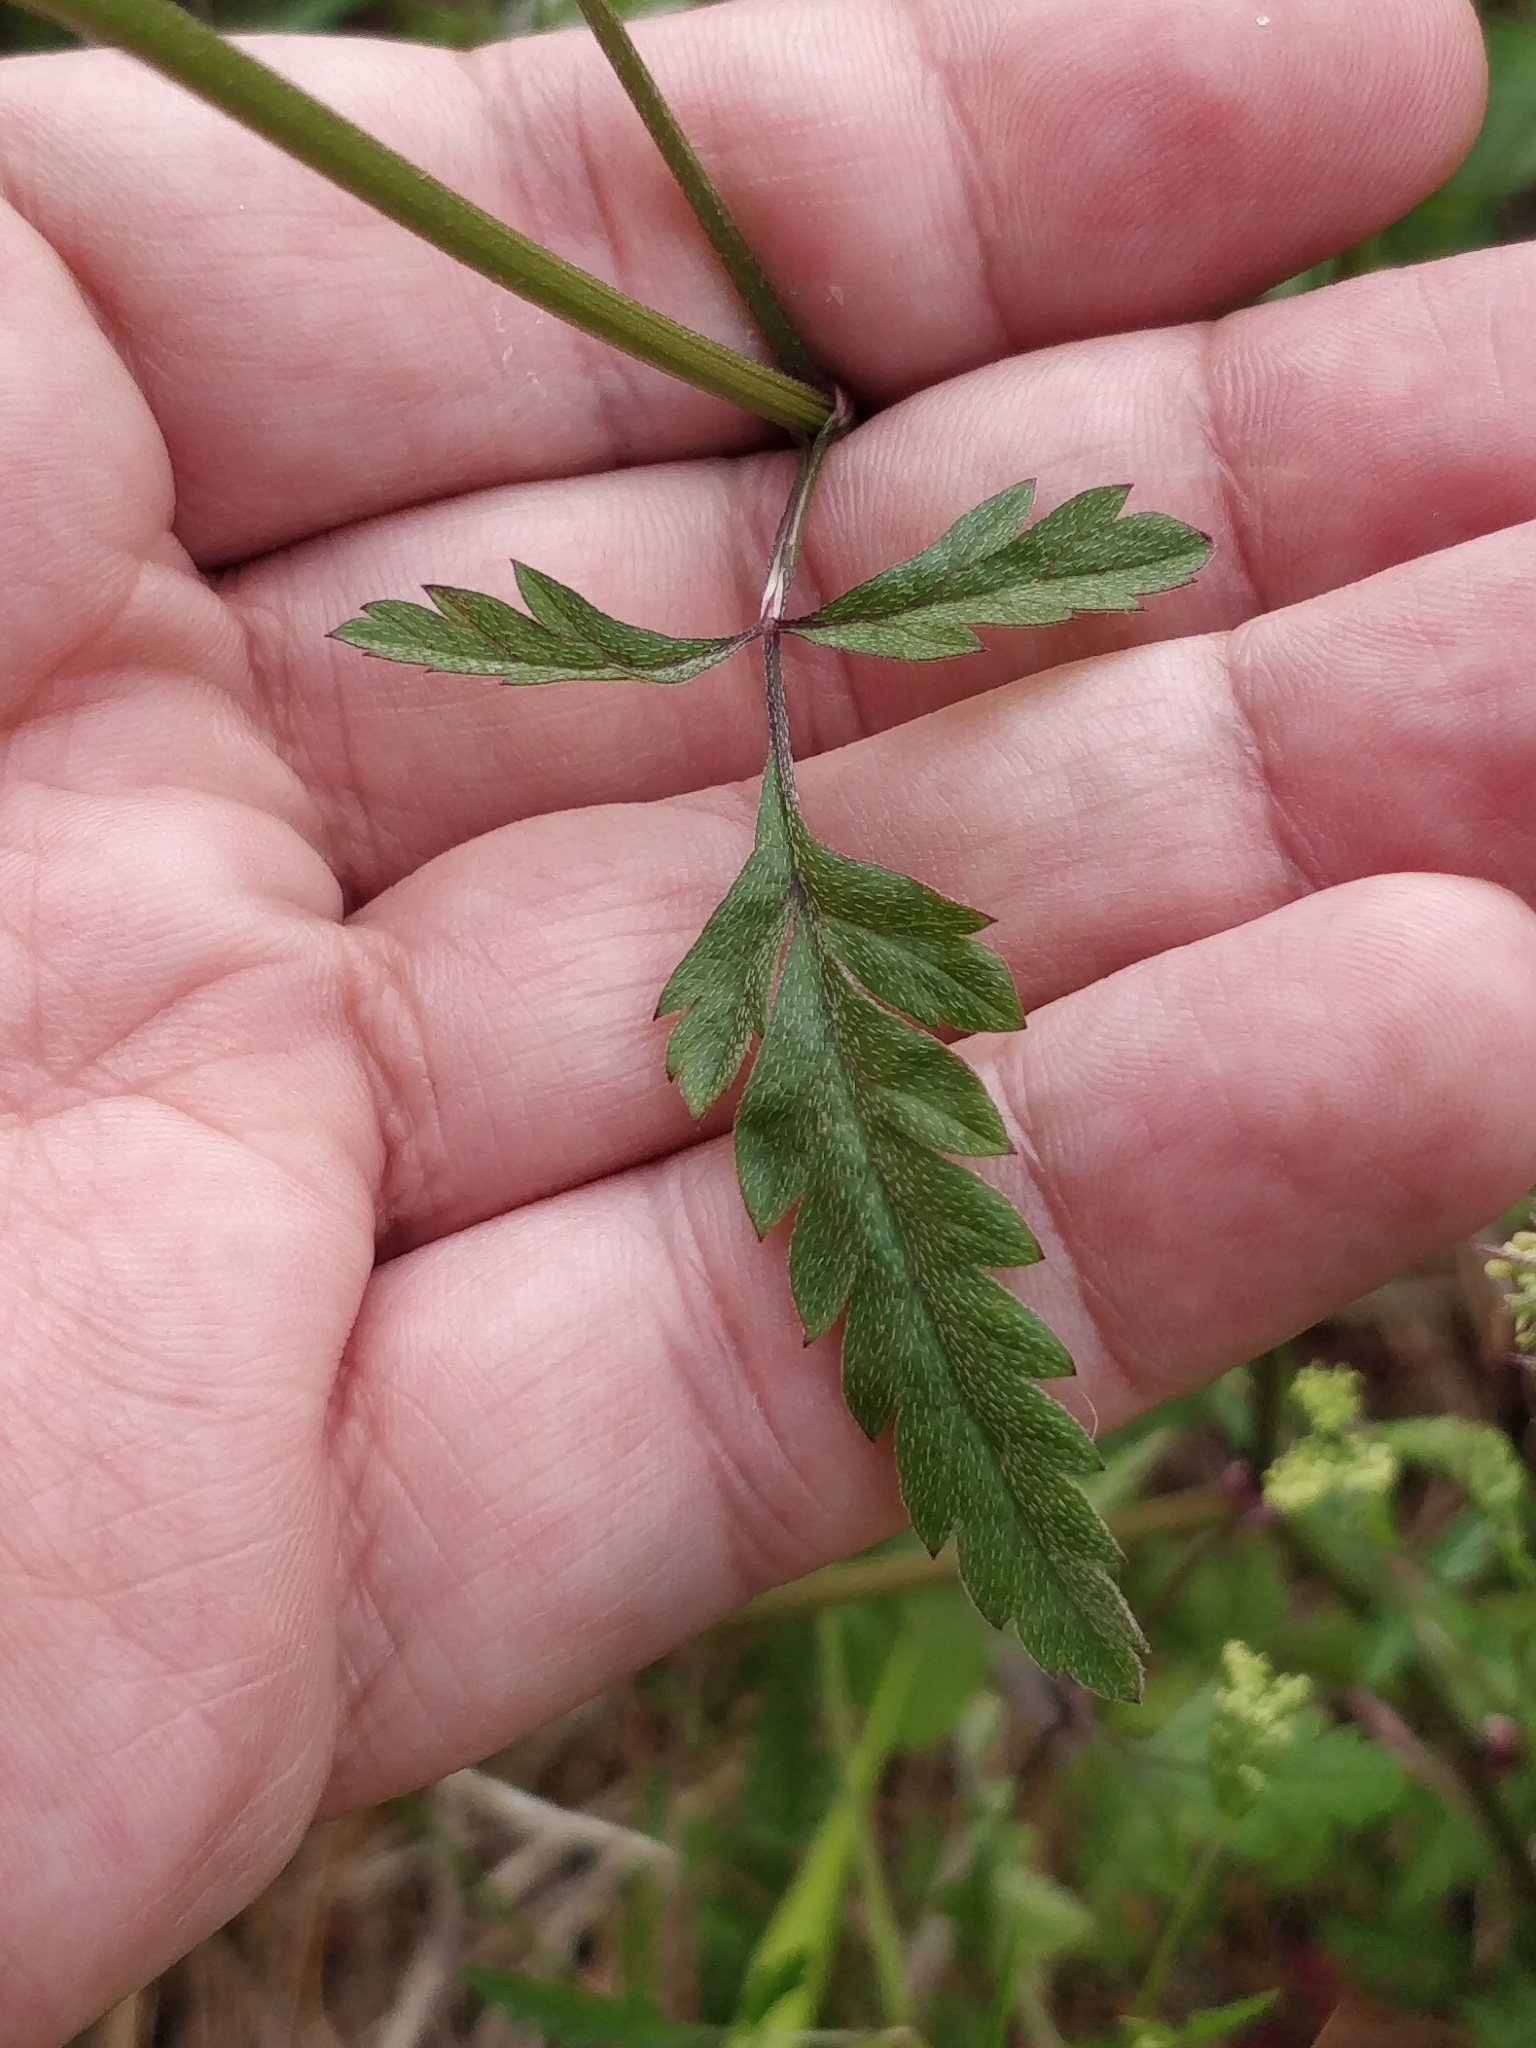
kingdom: Plantae
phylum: Tracheophyta
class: Magnoliopsida
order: Apiales
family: Apiaceae
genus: Torilis
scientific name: Torilis arvensis
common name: Spreading hedge-parsley
